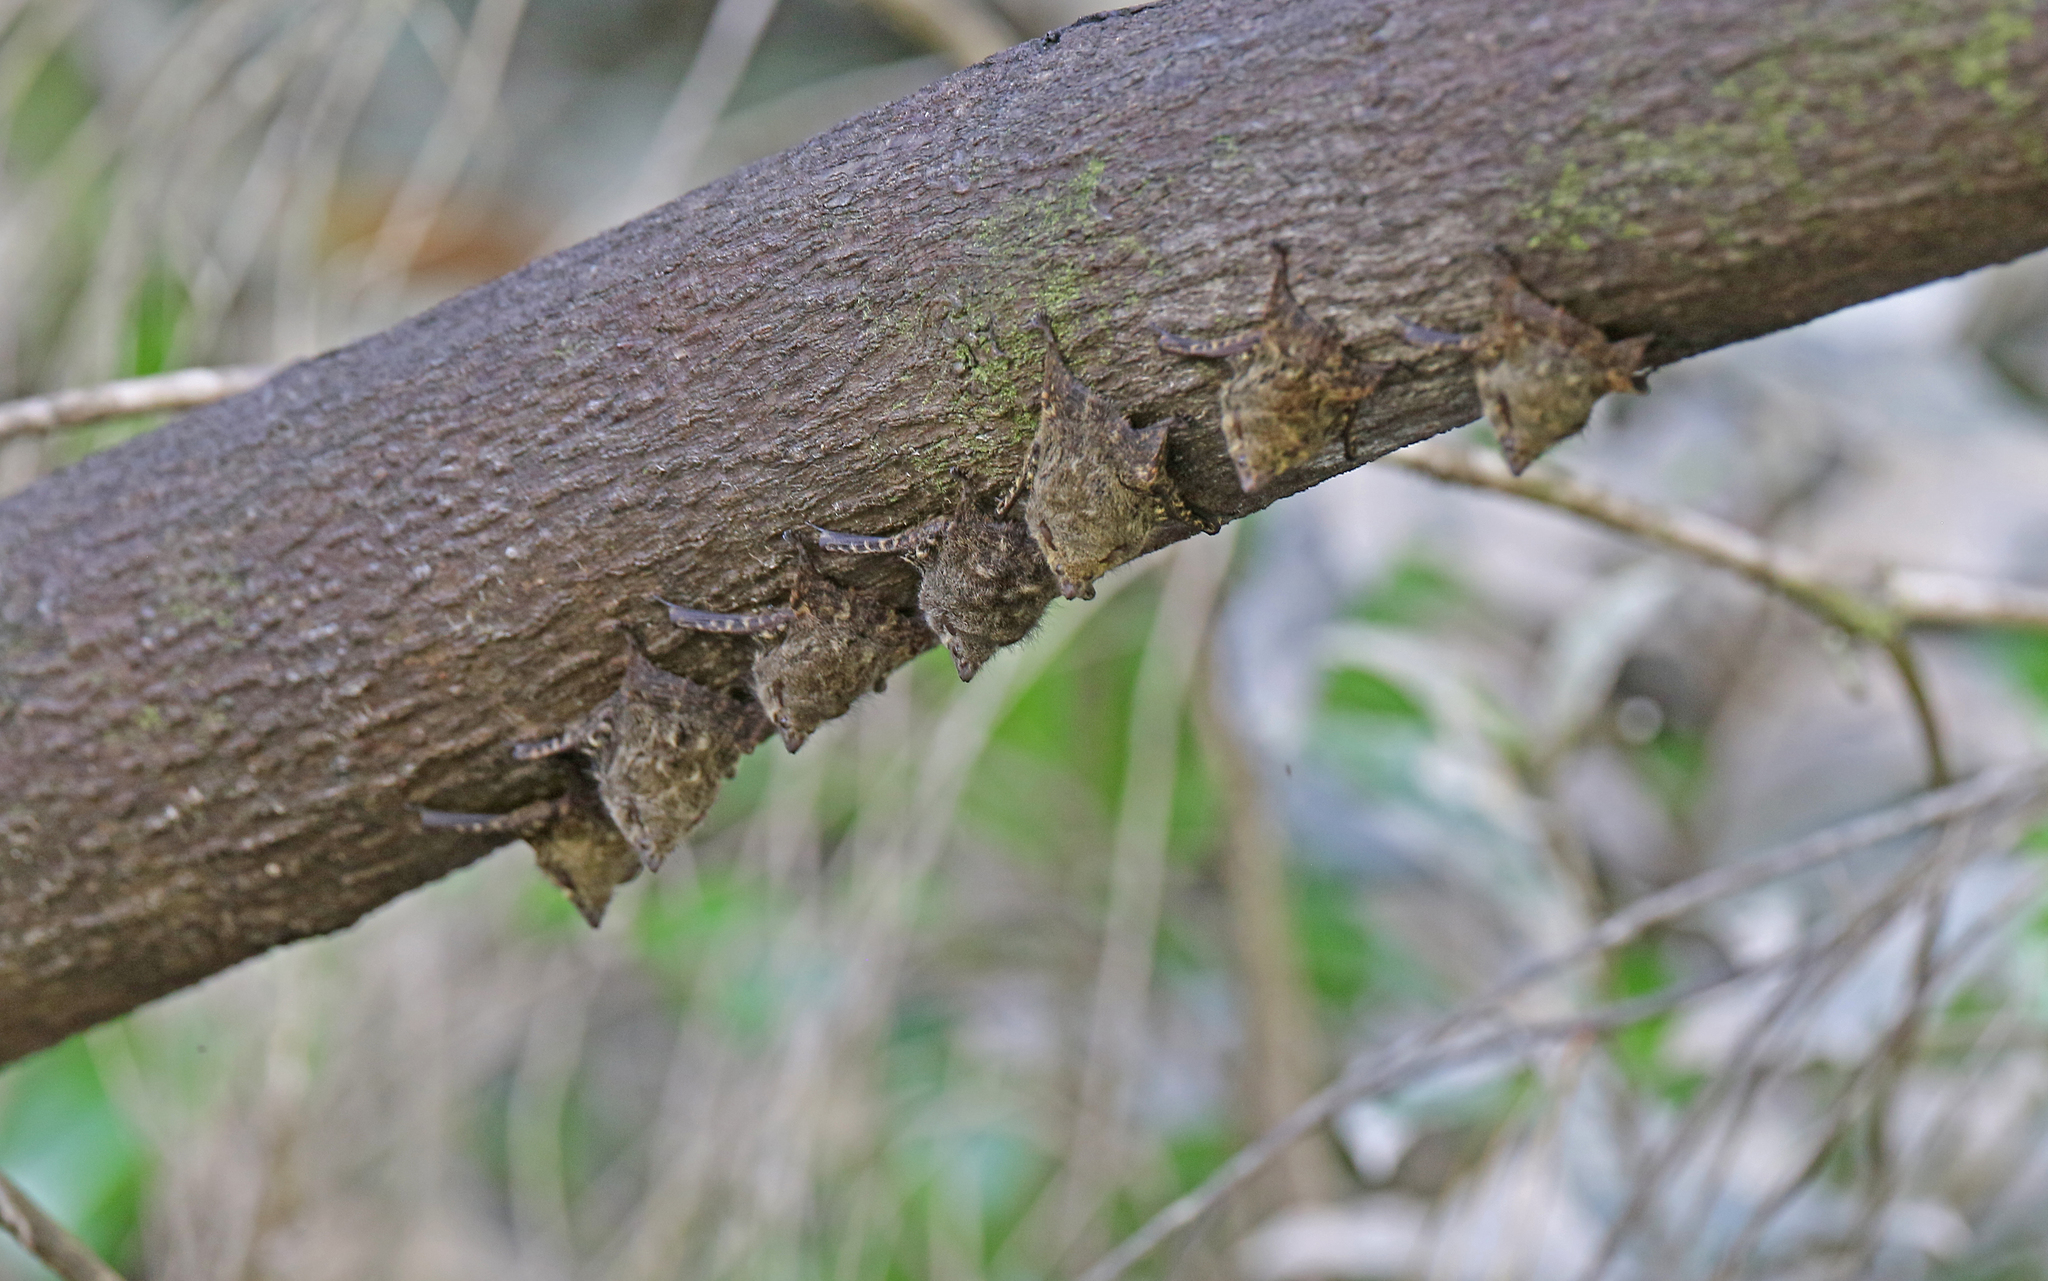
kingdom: Animalia
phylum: Chordata
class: Mammalia
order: Chiroptera
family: Emballonuridae
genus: Rhynchonycteris
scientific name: Rhynchonycteris naso
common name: Proboscis bat
